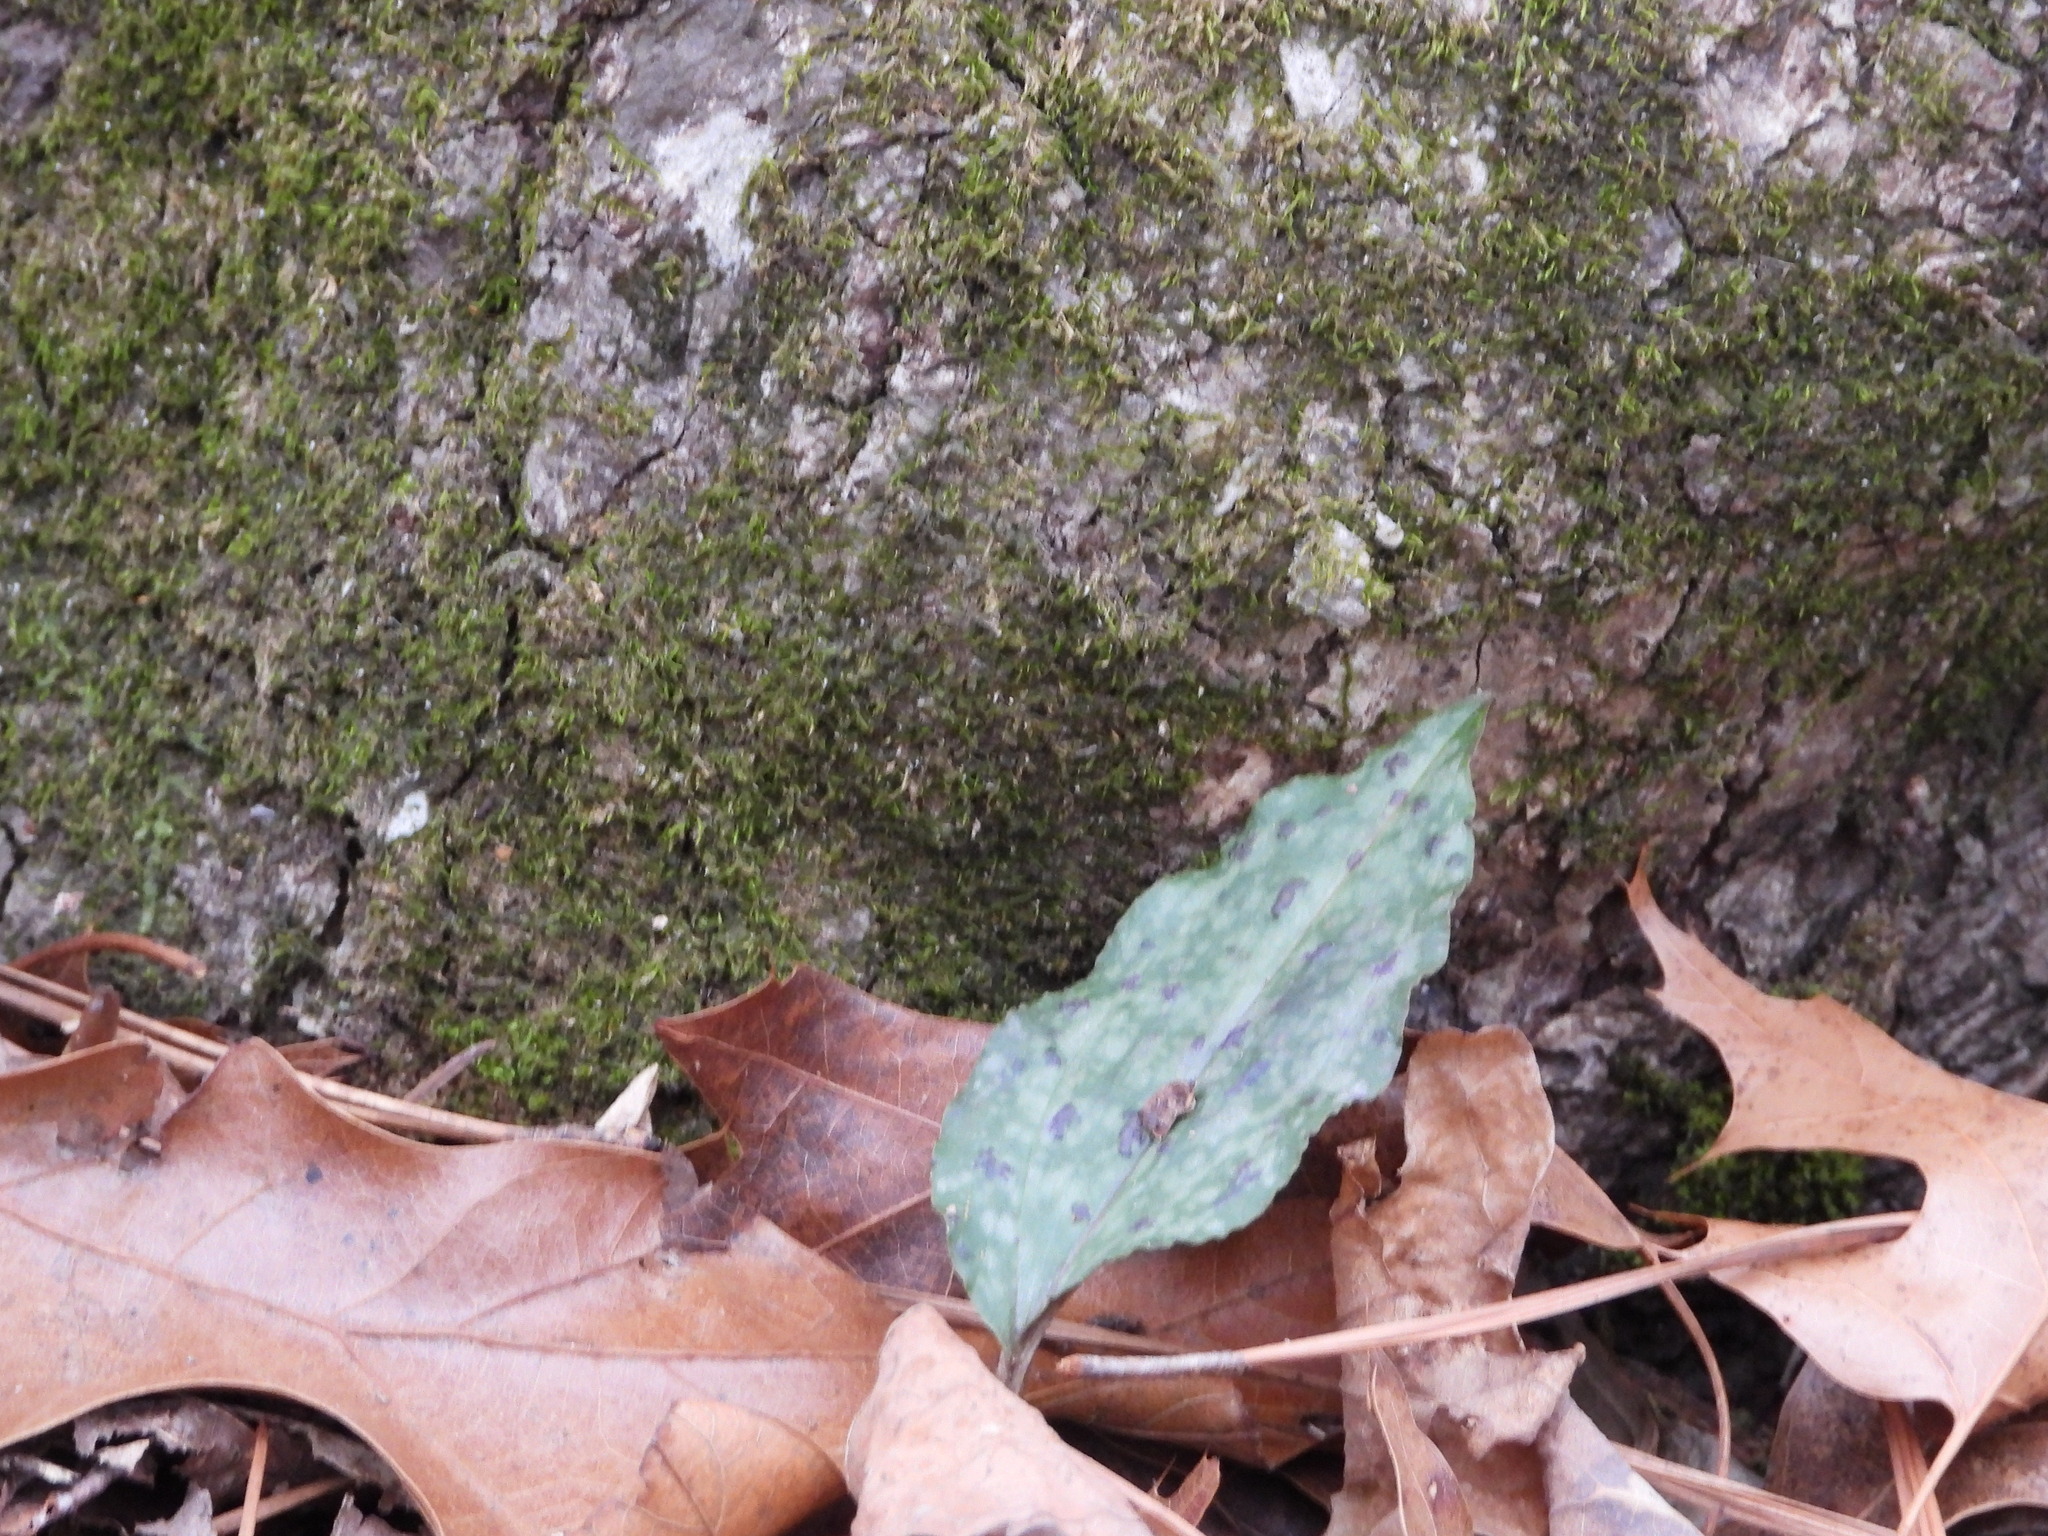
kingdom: Plantae
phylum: Tracheophyta
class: Liliopsida
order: Asparagales
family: Orchidaceae
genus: Tipularia
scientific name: Tipularia discolor
